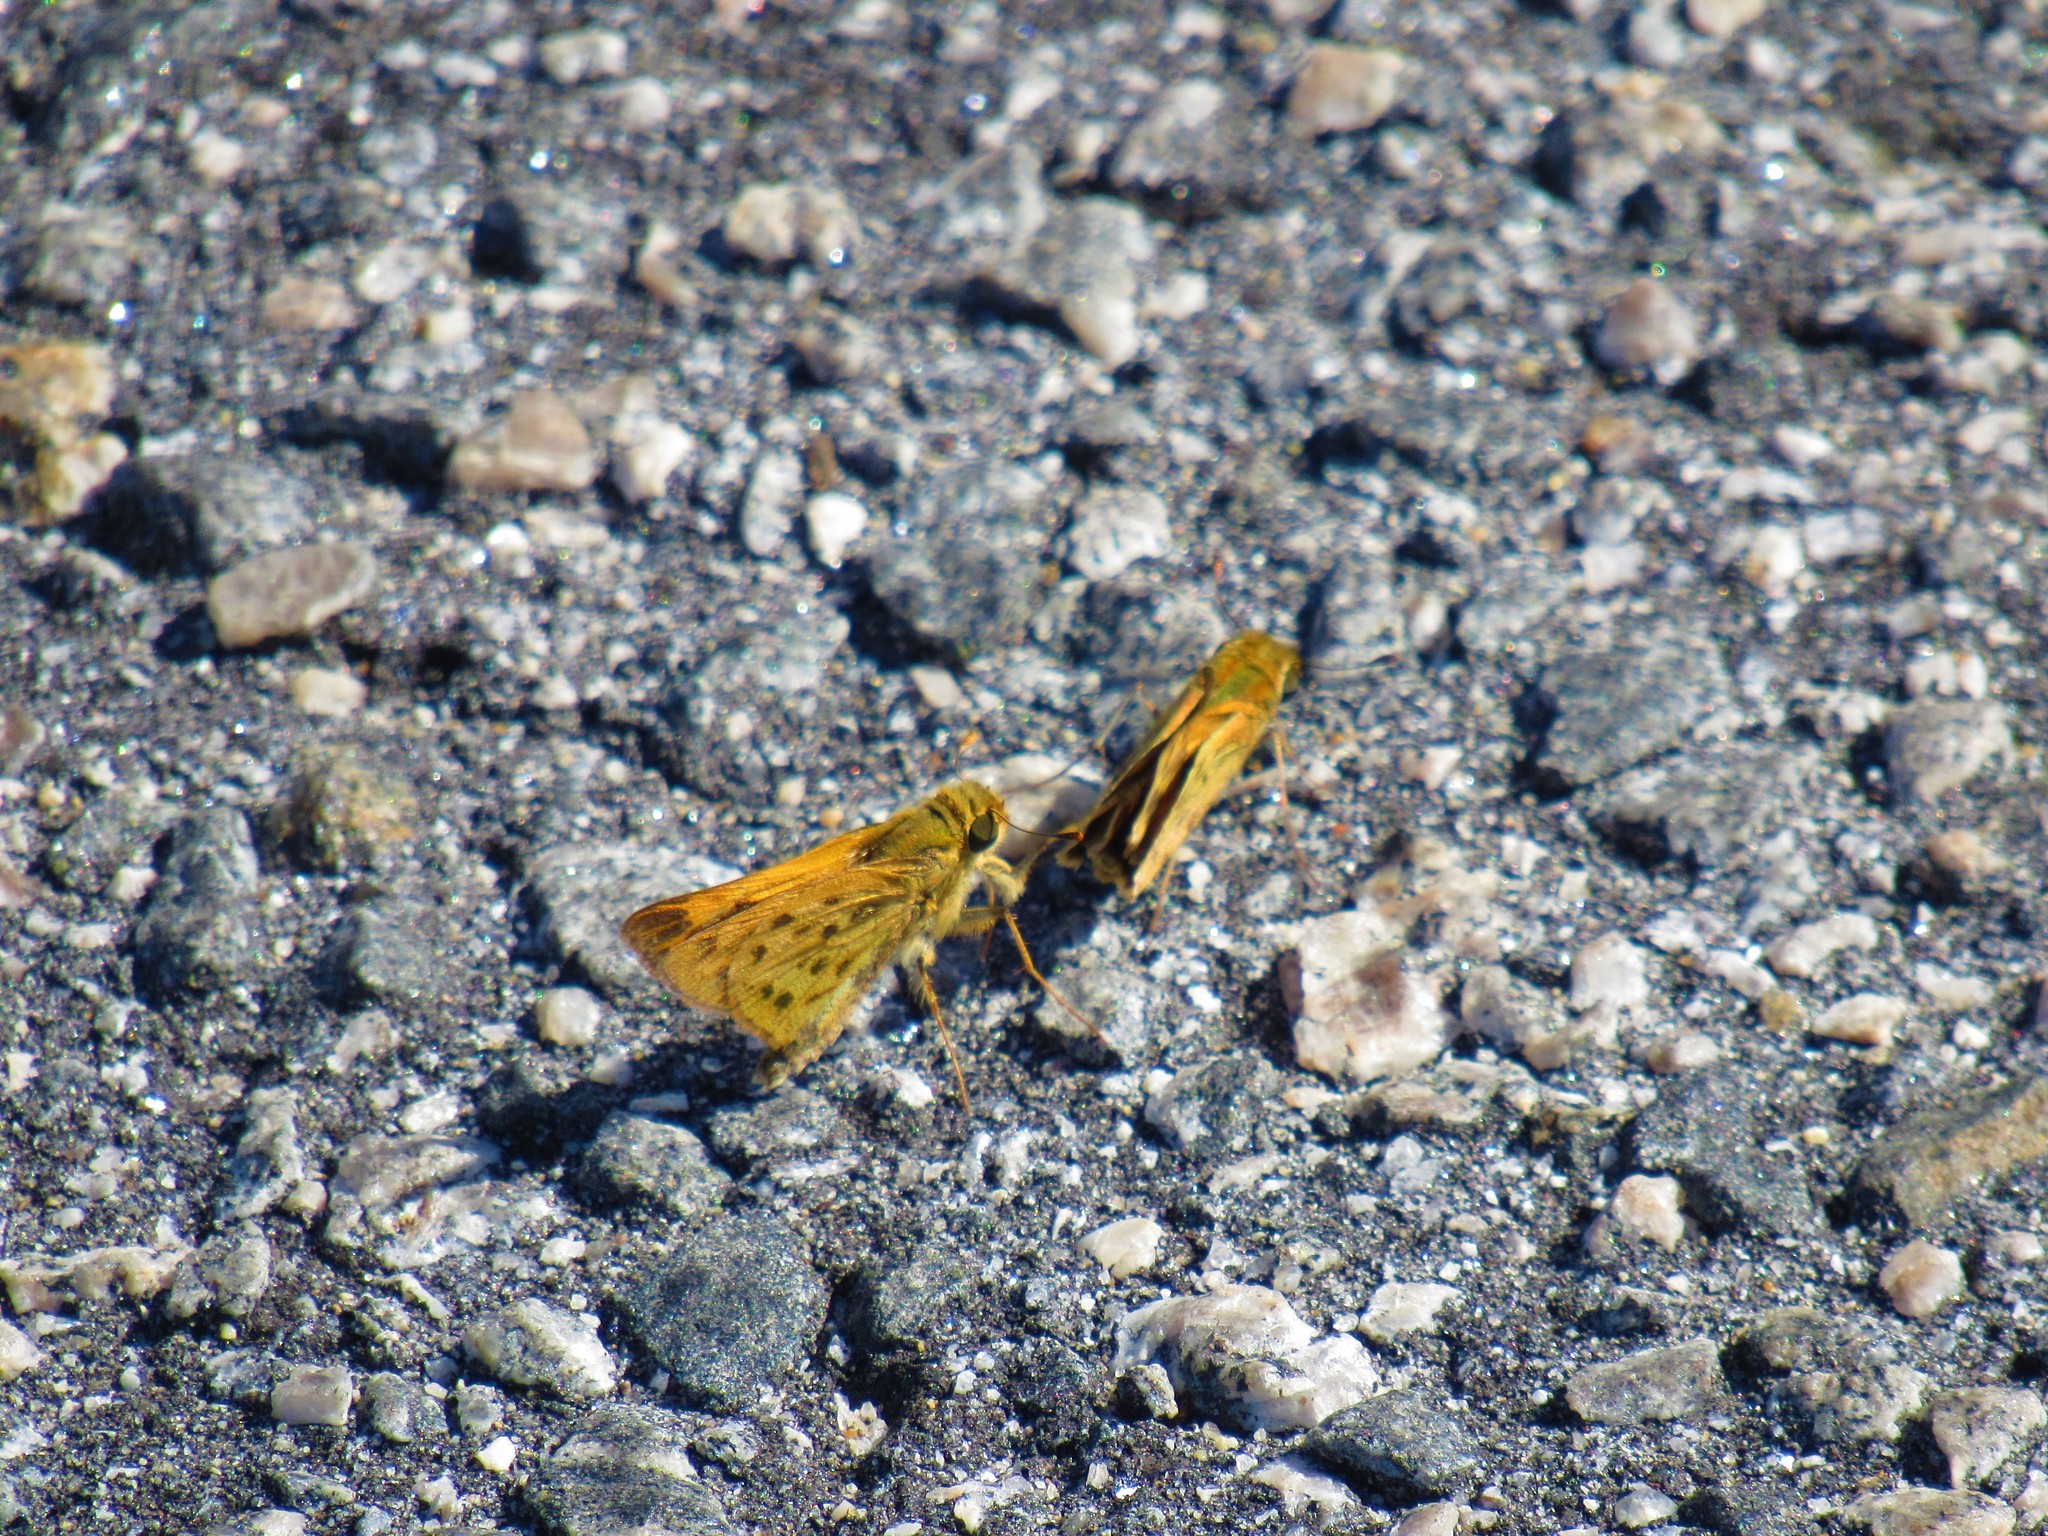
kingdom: Animalia
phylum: Arthropoda
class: Insecta
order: Lepidoptera
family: Hesperiidae
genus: Hylephila
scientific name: Hylephila phyleus
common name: Fiery skipper
